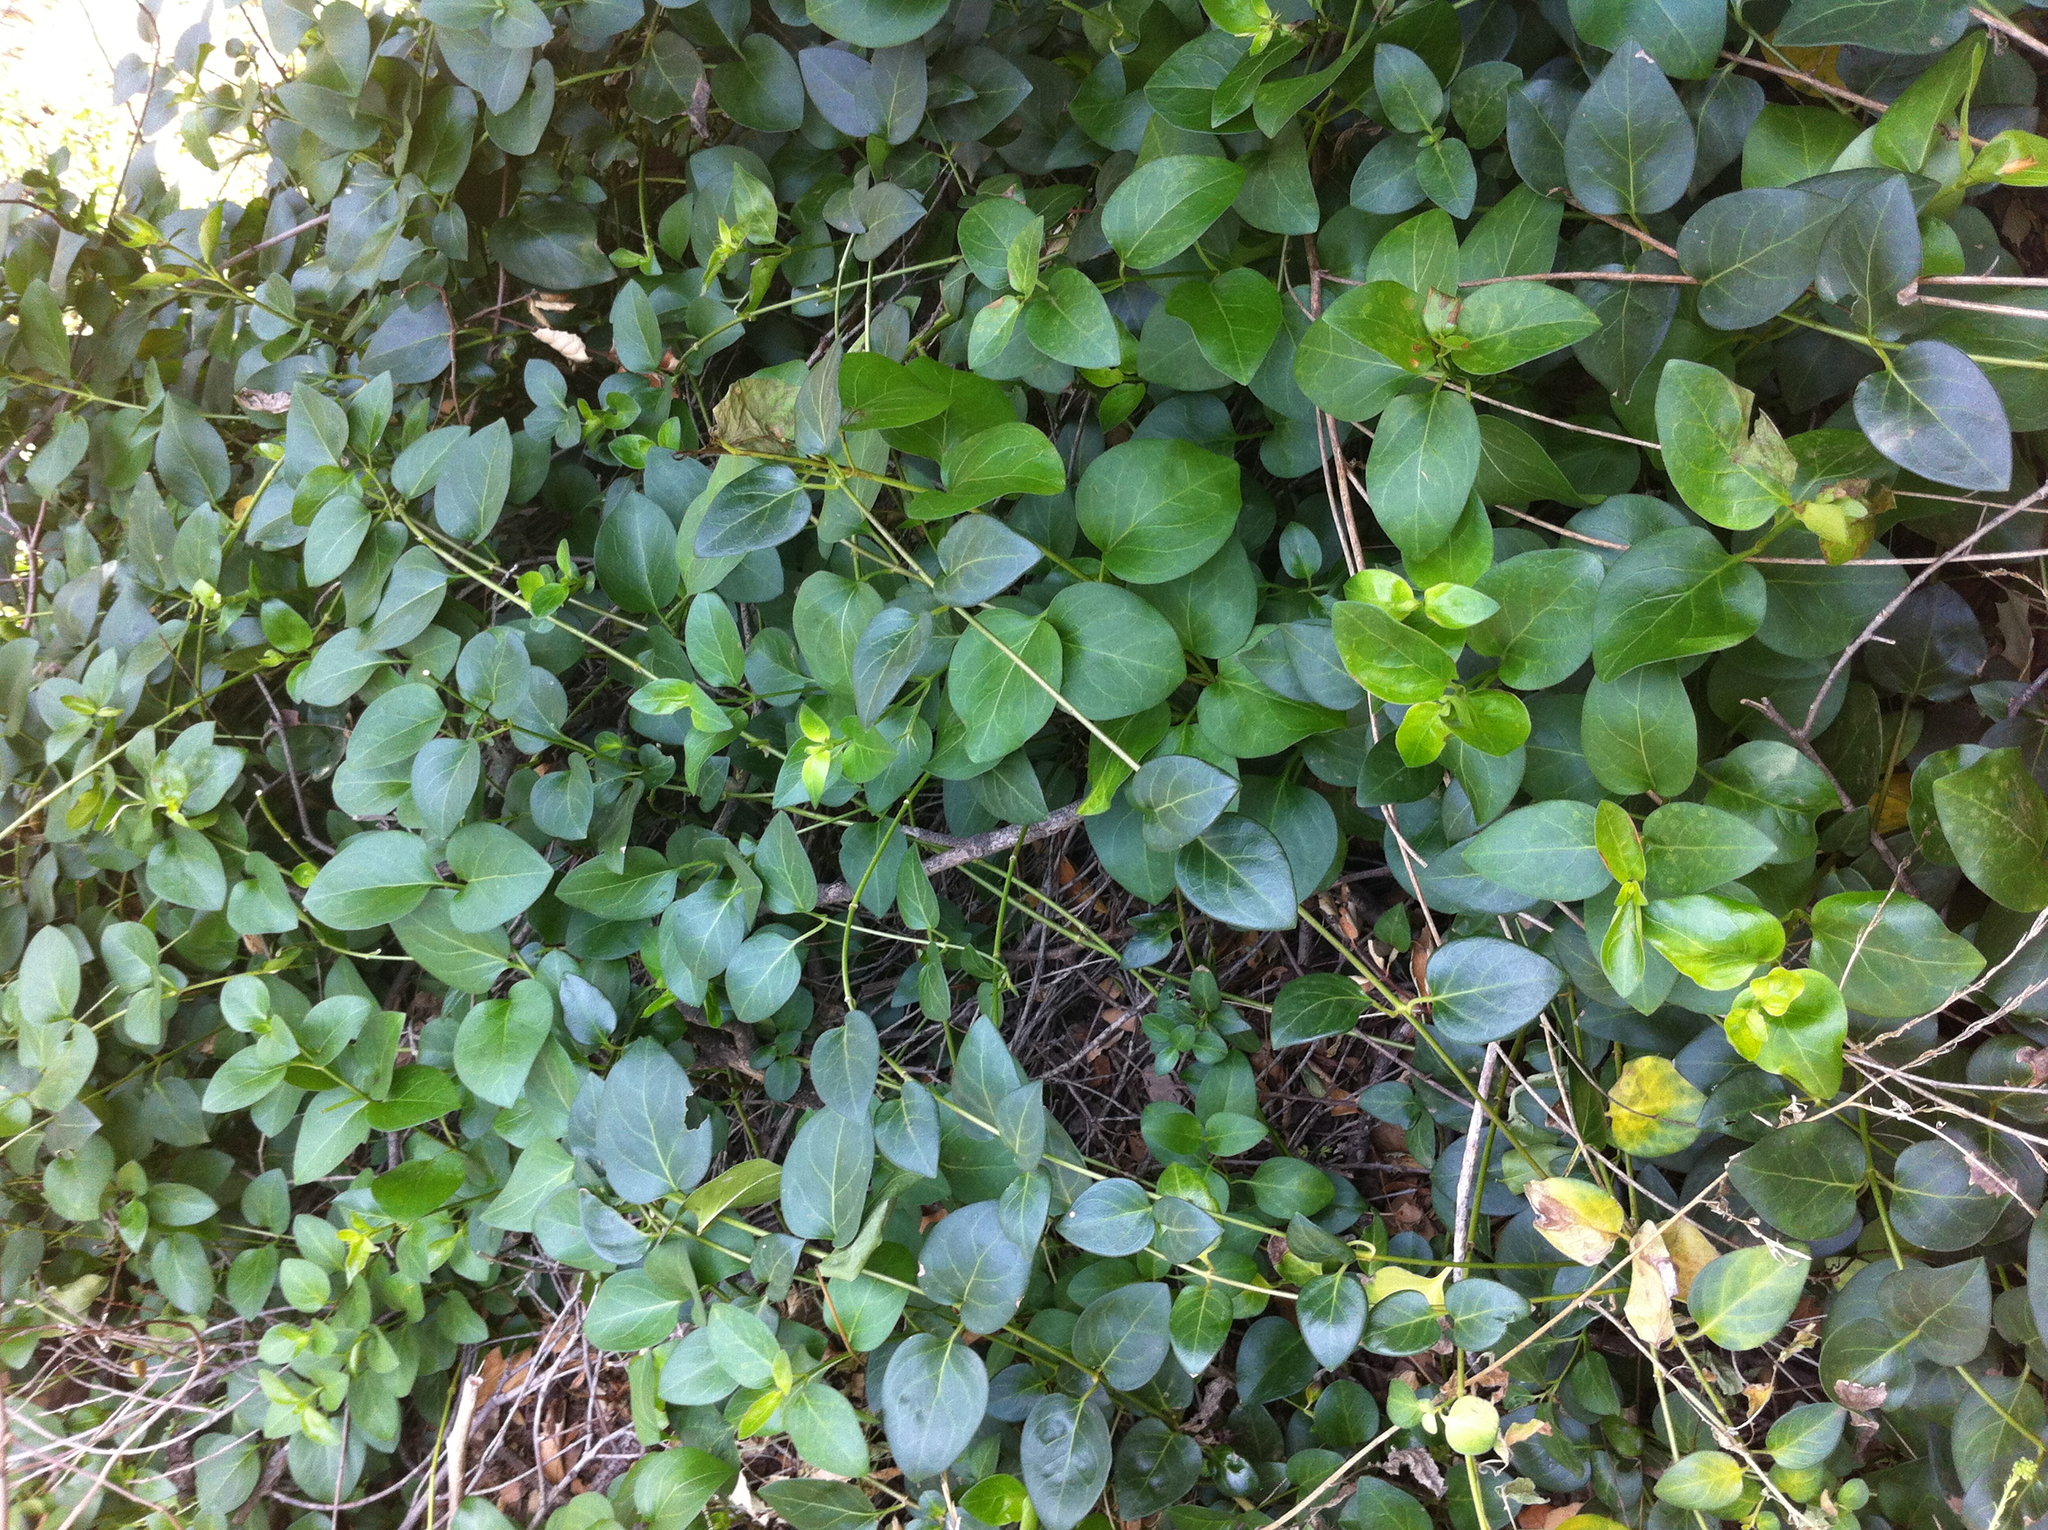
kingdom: Plantae
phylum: Tracheophyta
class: Magnoliopsida
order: Gentianales
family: Apocynaceae
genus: Vinca
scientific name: Vinca major
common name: Greater periwinkle
